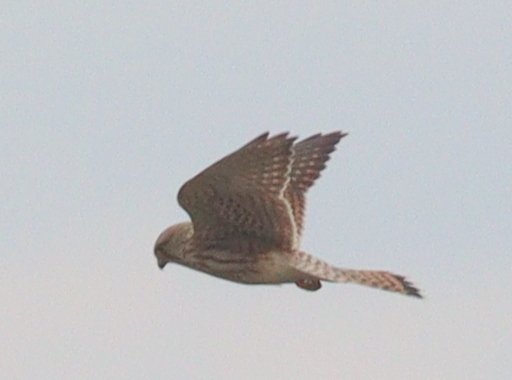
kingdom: Animalia
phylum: Chordata
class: Aves
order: Falconiformes
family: Falconidae
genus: Falco
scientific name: Falco tinnunculus
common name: Common kestrel
